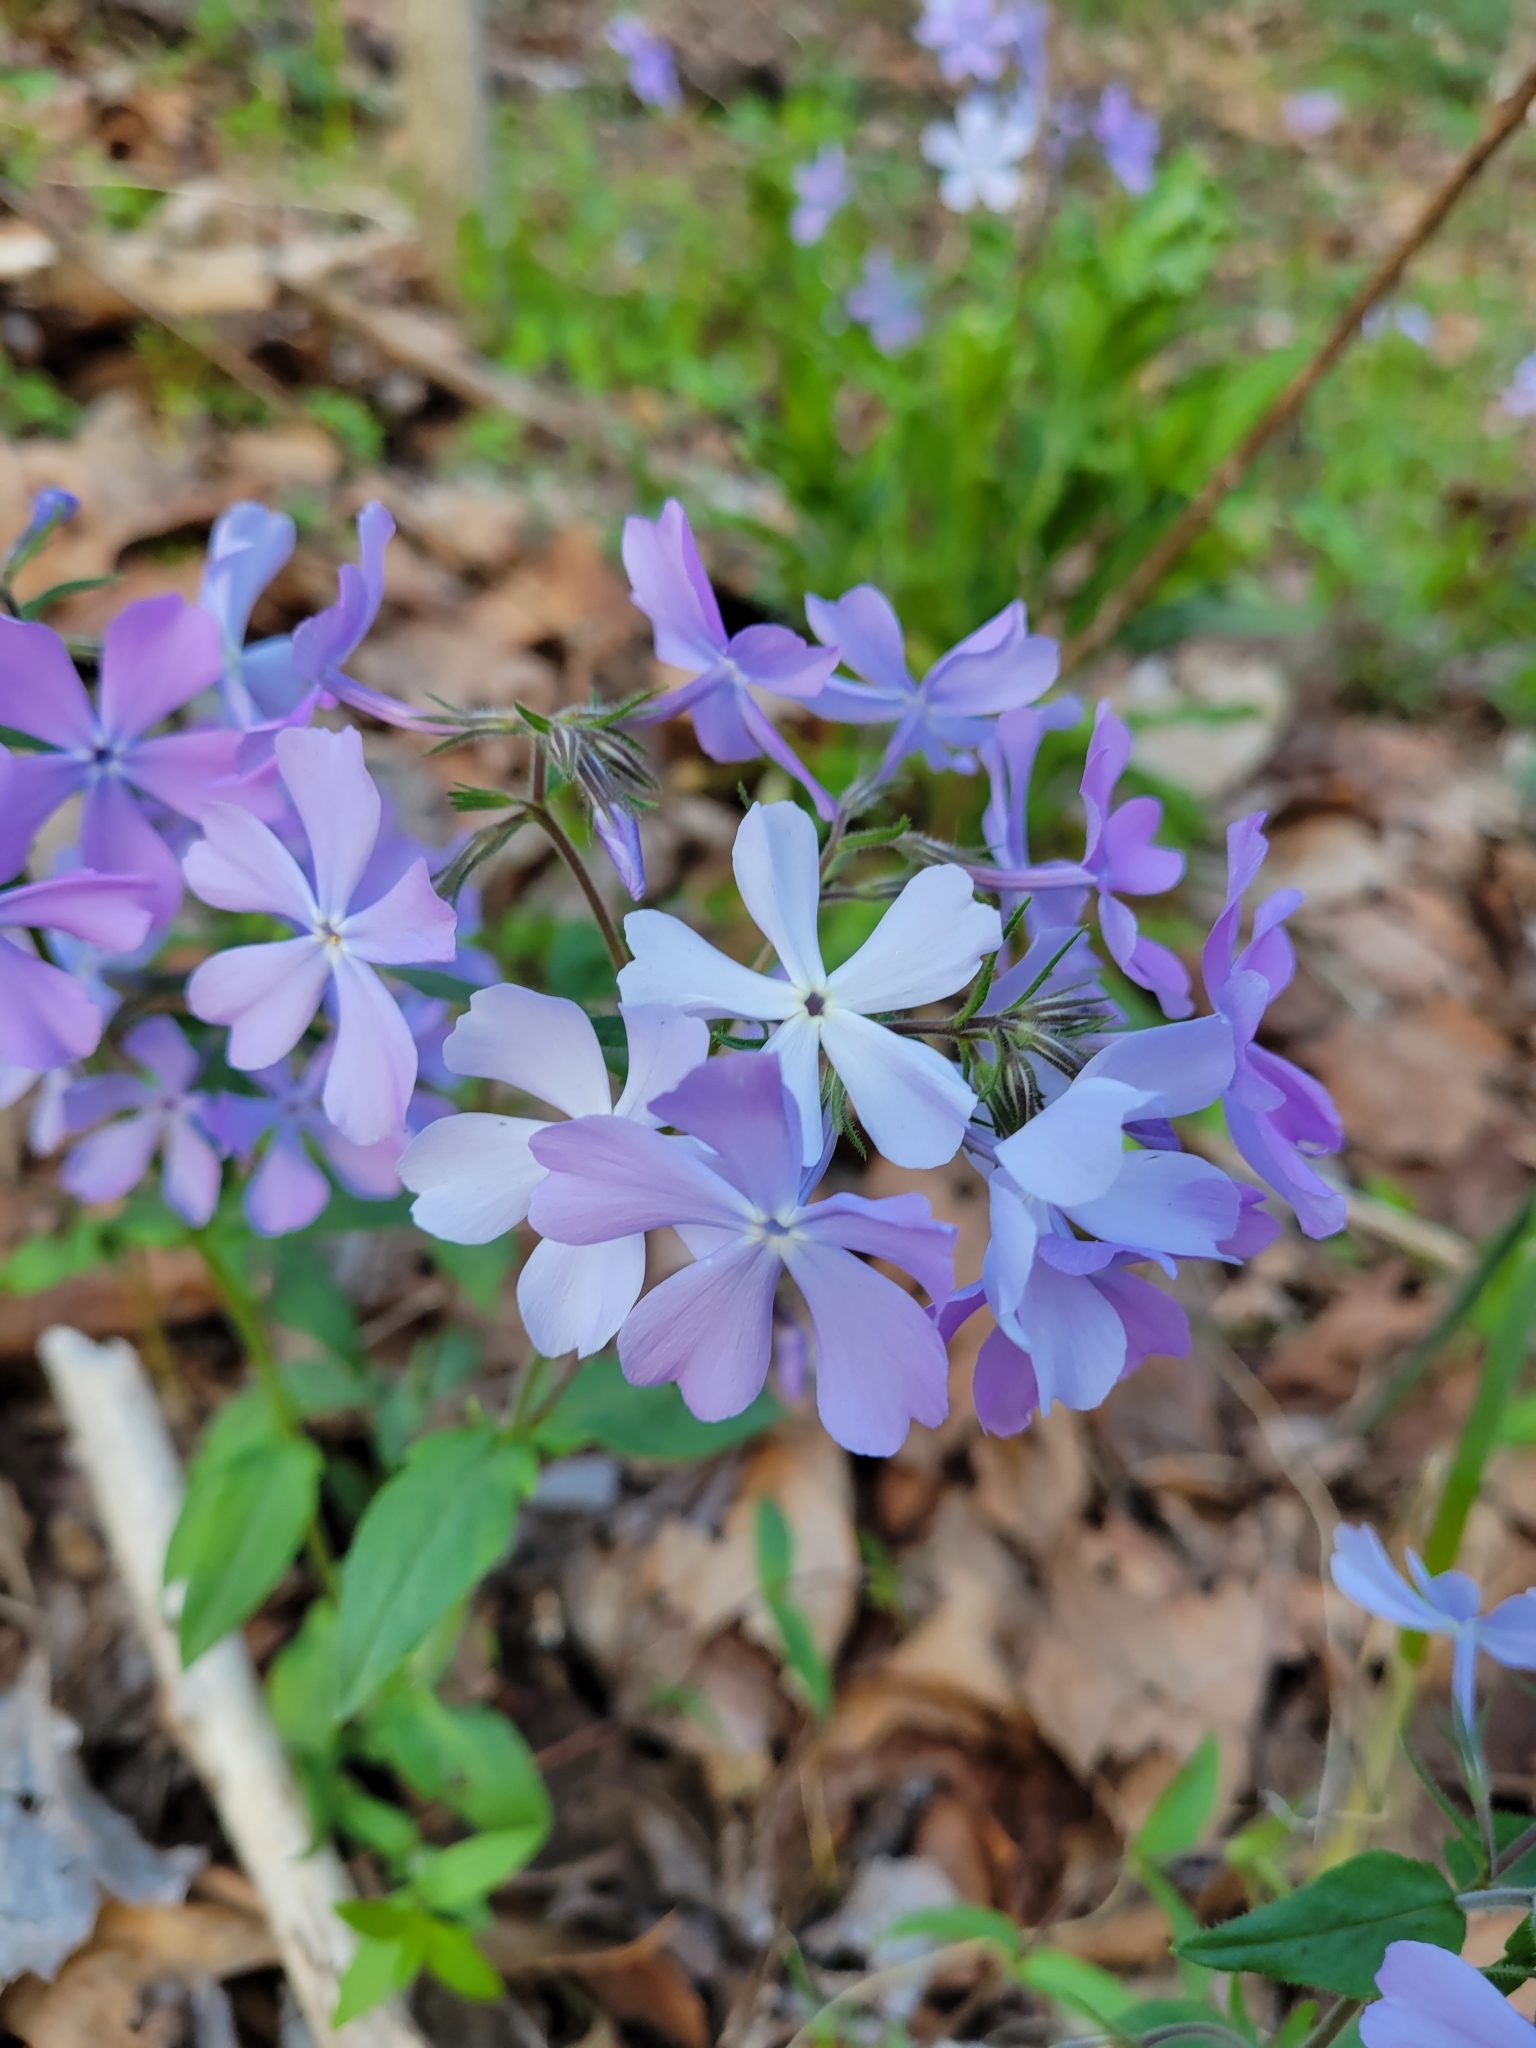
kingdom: Plantae
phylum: Tracheophyta
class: Magnoliopsida
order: Ericales
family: Polemoniaceae
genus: Phlox
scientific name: Phlox divaricata
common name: Blue phlox
